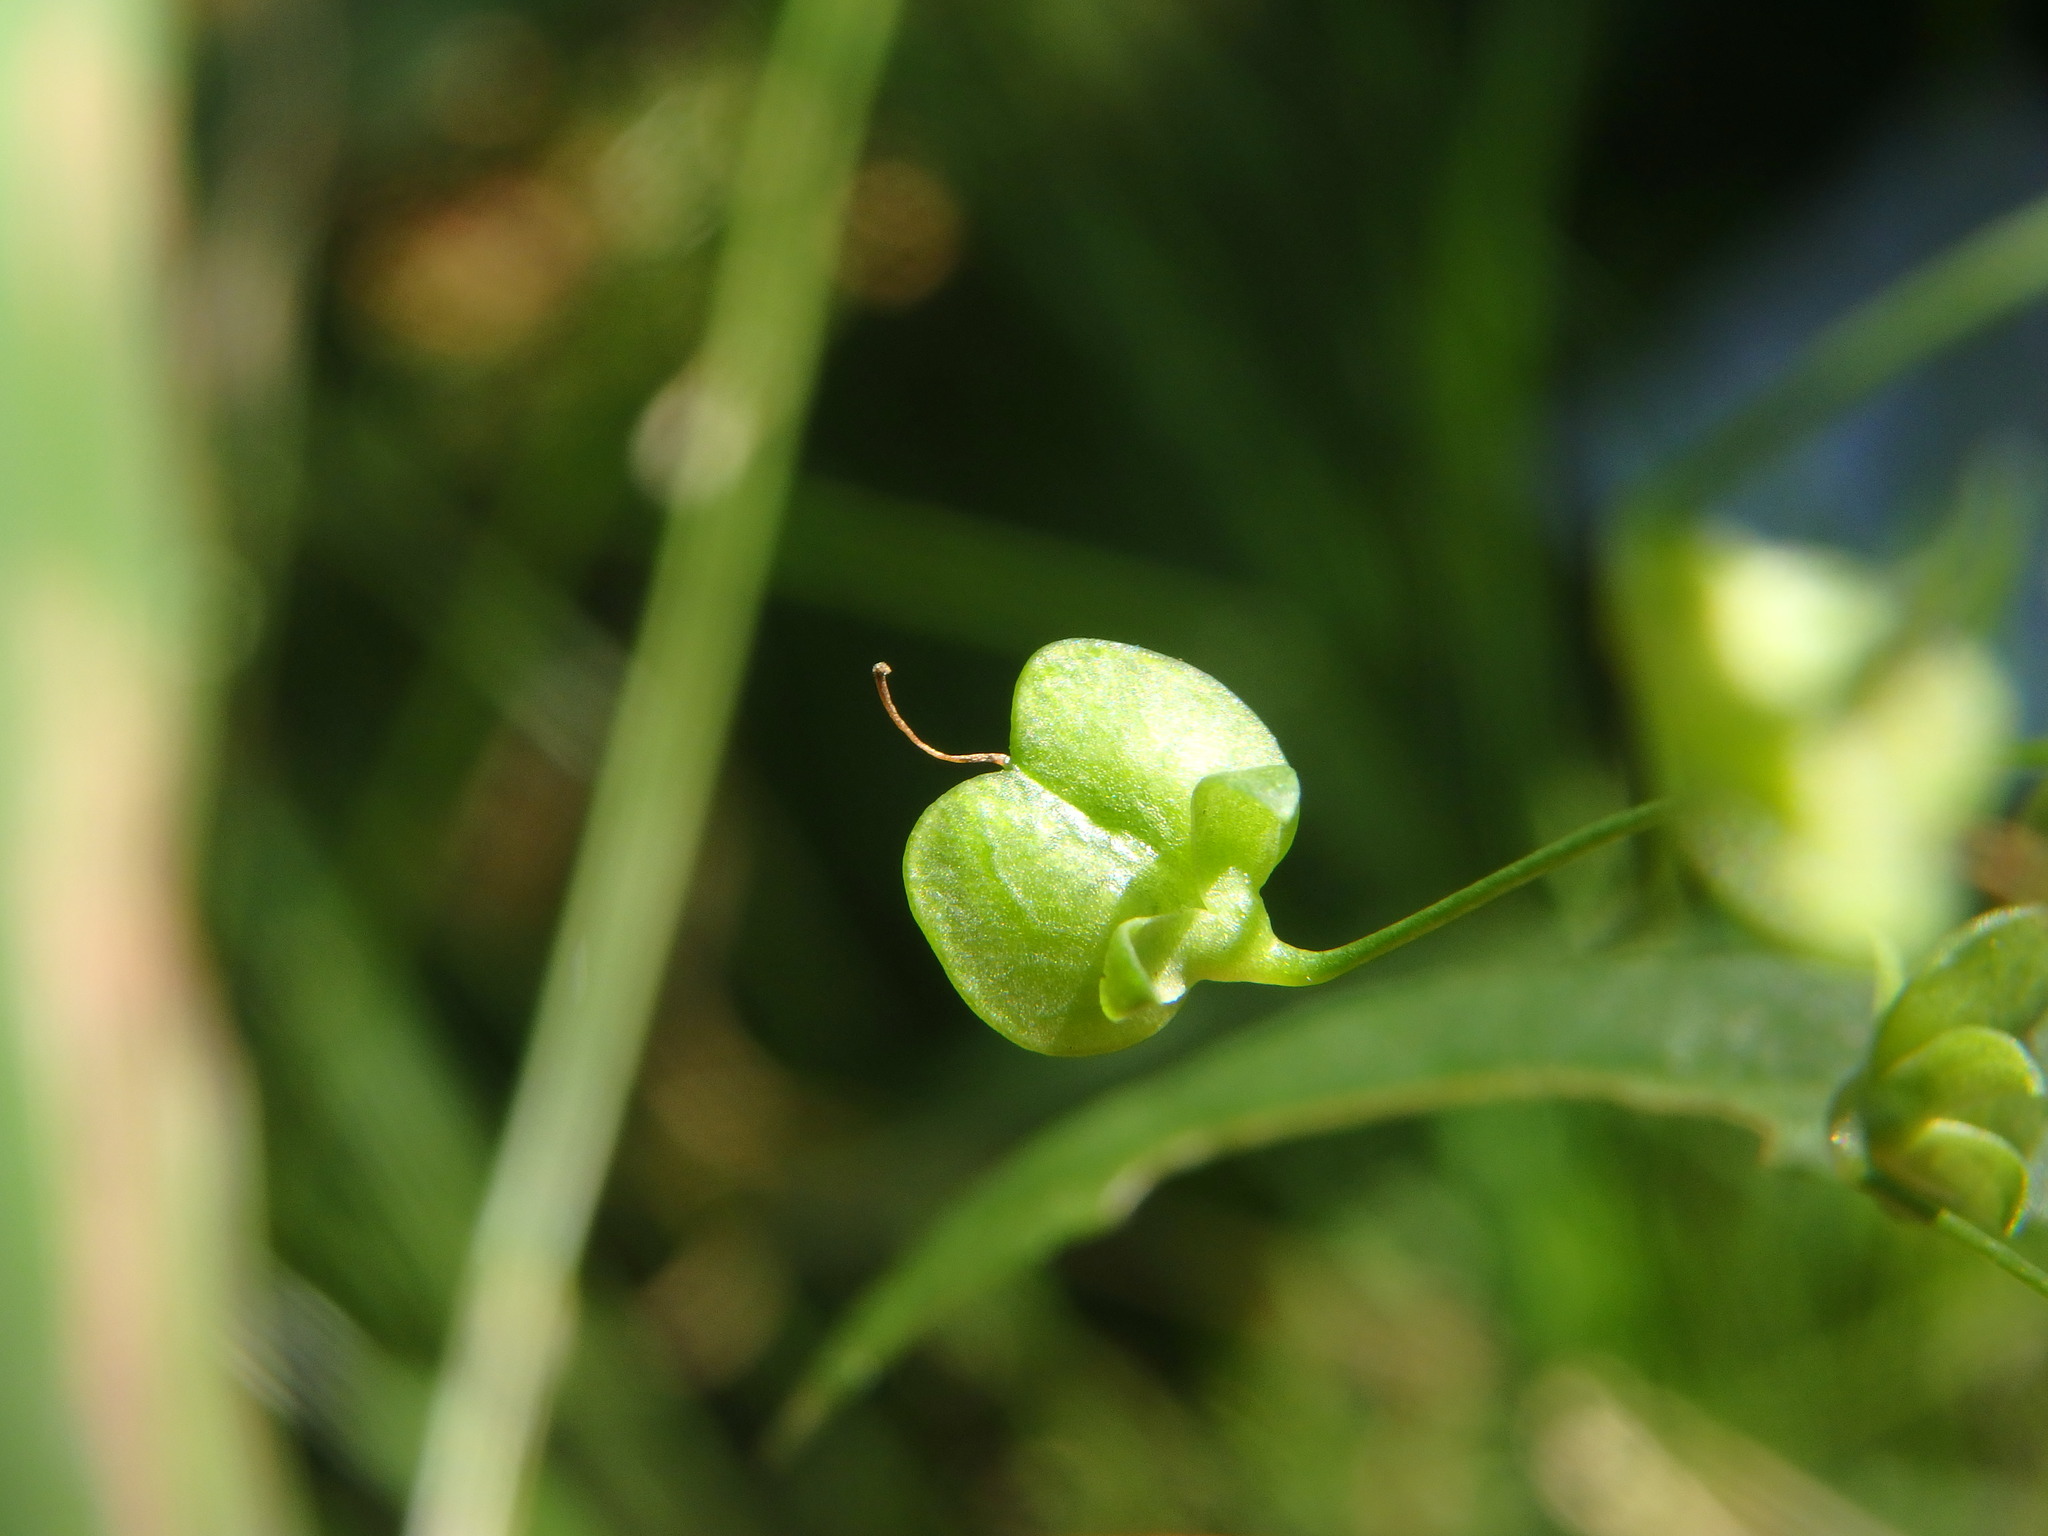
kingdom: Plantae
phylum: Tracheophyta
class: Magnoliopsida
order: Lamiales
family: Plantaginaceae
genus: Veronica
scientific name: Veronica scutellata
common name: Marsh speedwell
